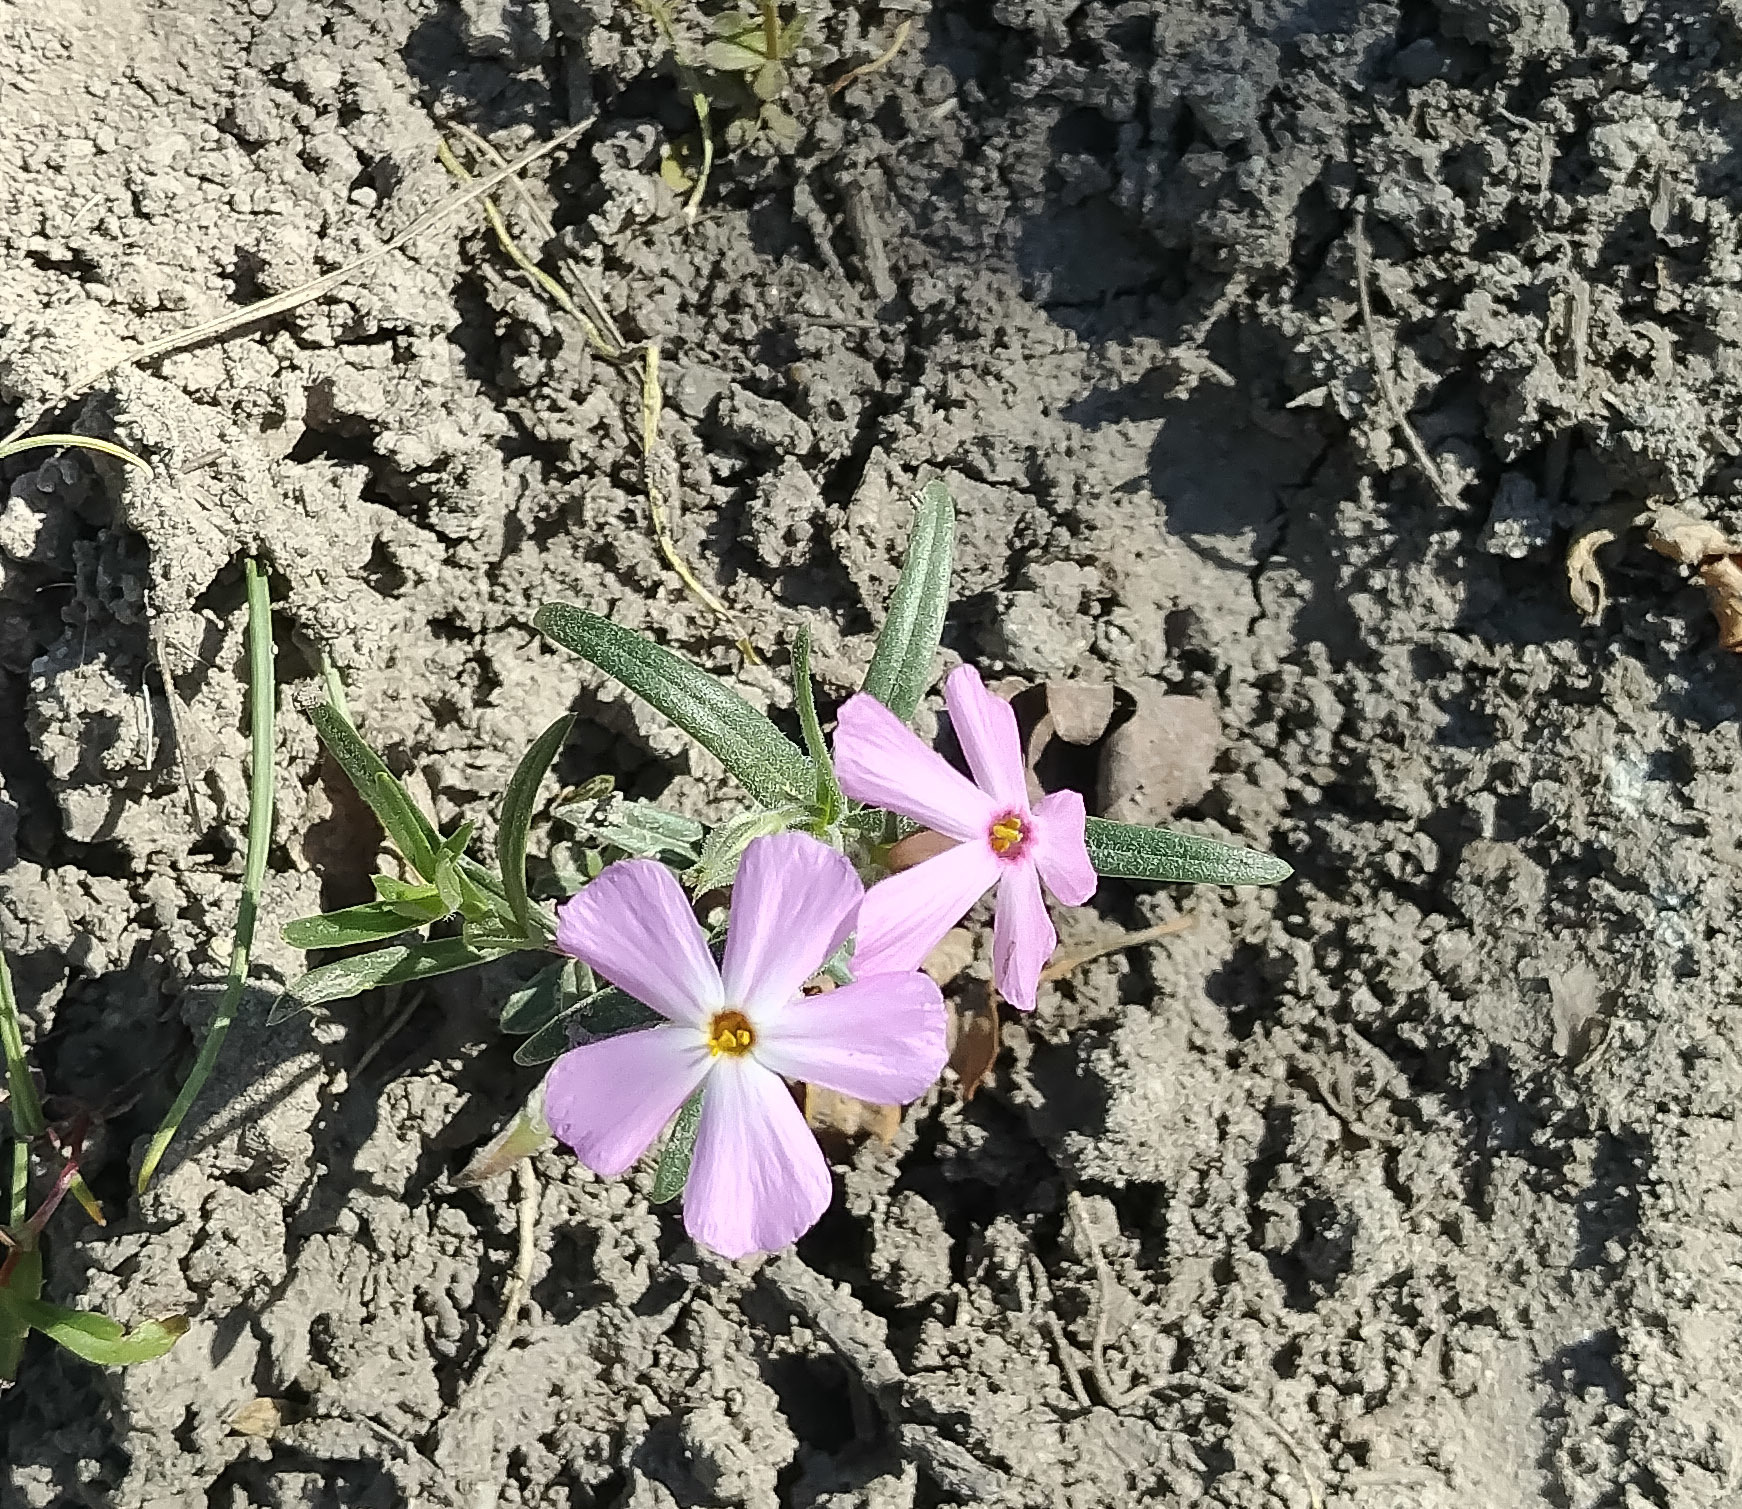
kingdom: Plantae
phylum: Tracheophyta
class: Magnoliopsida
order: Ericales
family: Polemoniaceae
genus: Phlox
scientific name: Phlox longifolia
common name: Longleaf phlox
